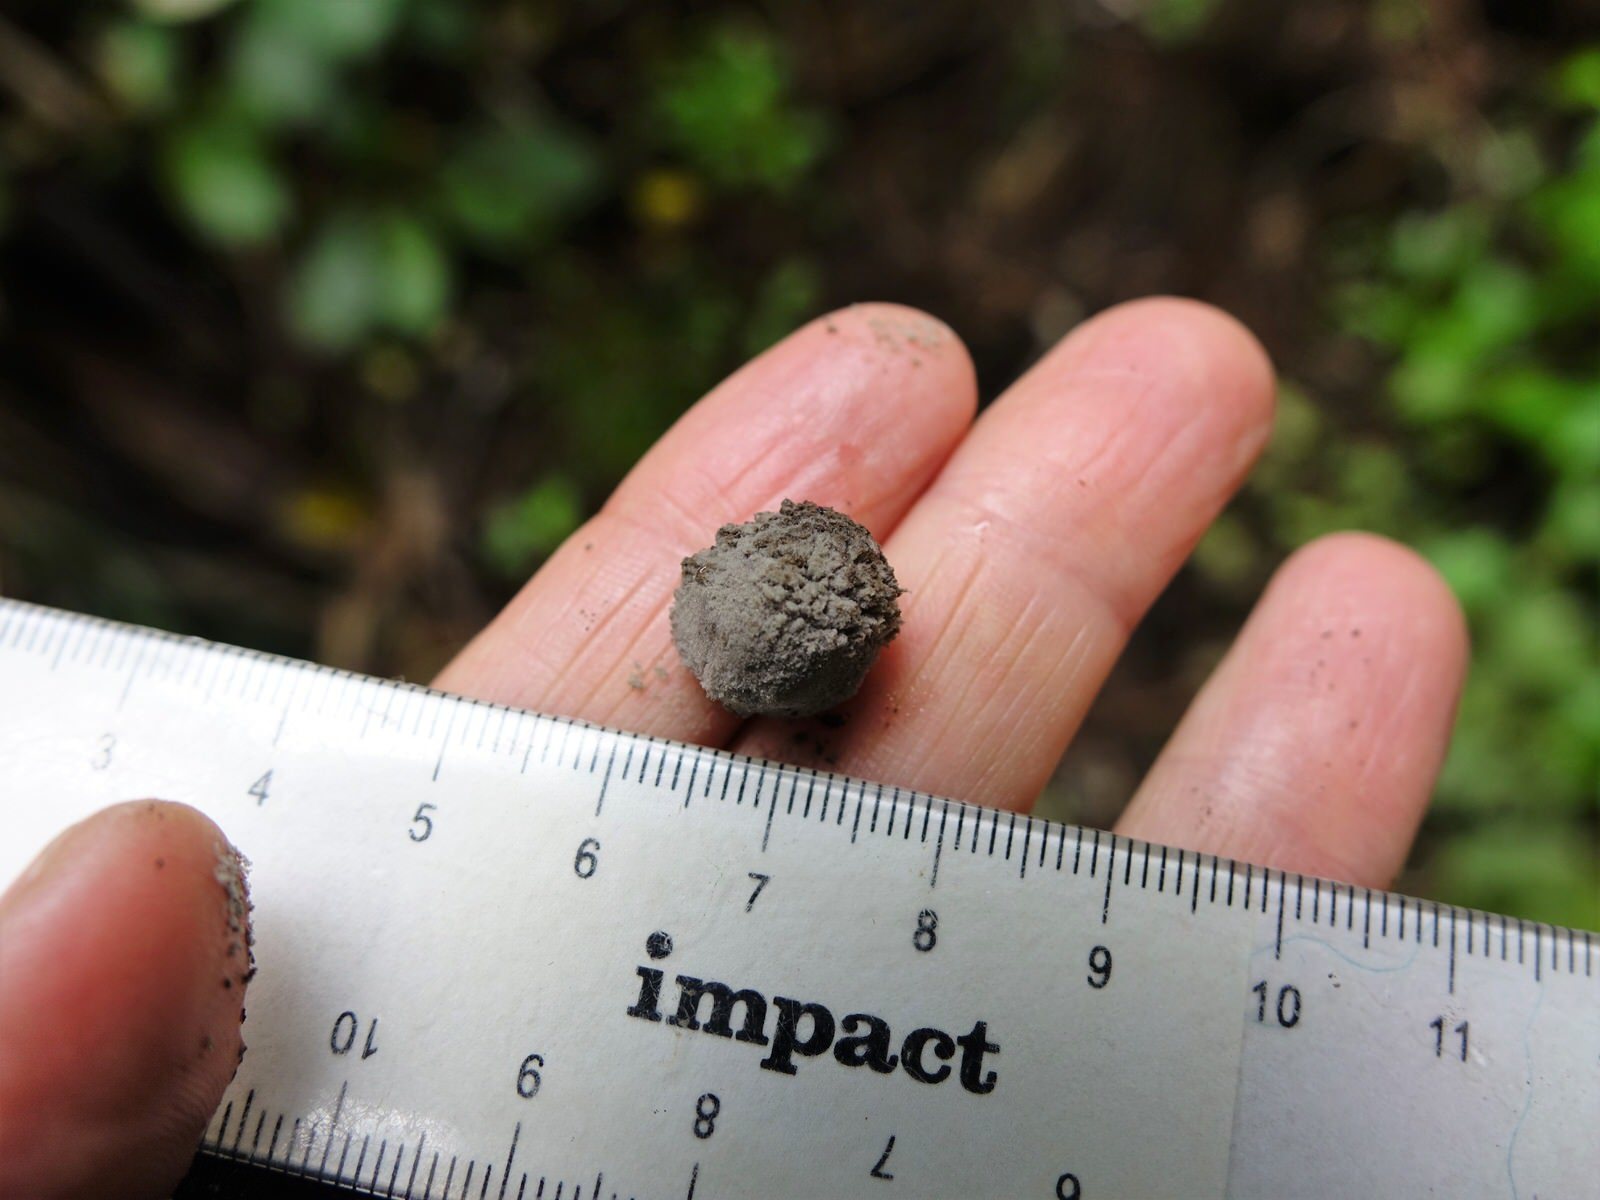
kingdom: Fungi
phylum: Basidiomycota
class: Agaricomycetes
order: Agaricales
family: Psathyrellaceae
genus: Coprinopsis
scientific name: Coprinopsis laanii
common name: Dotty inkcap
